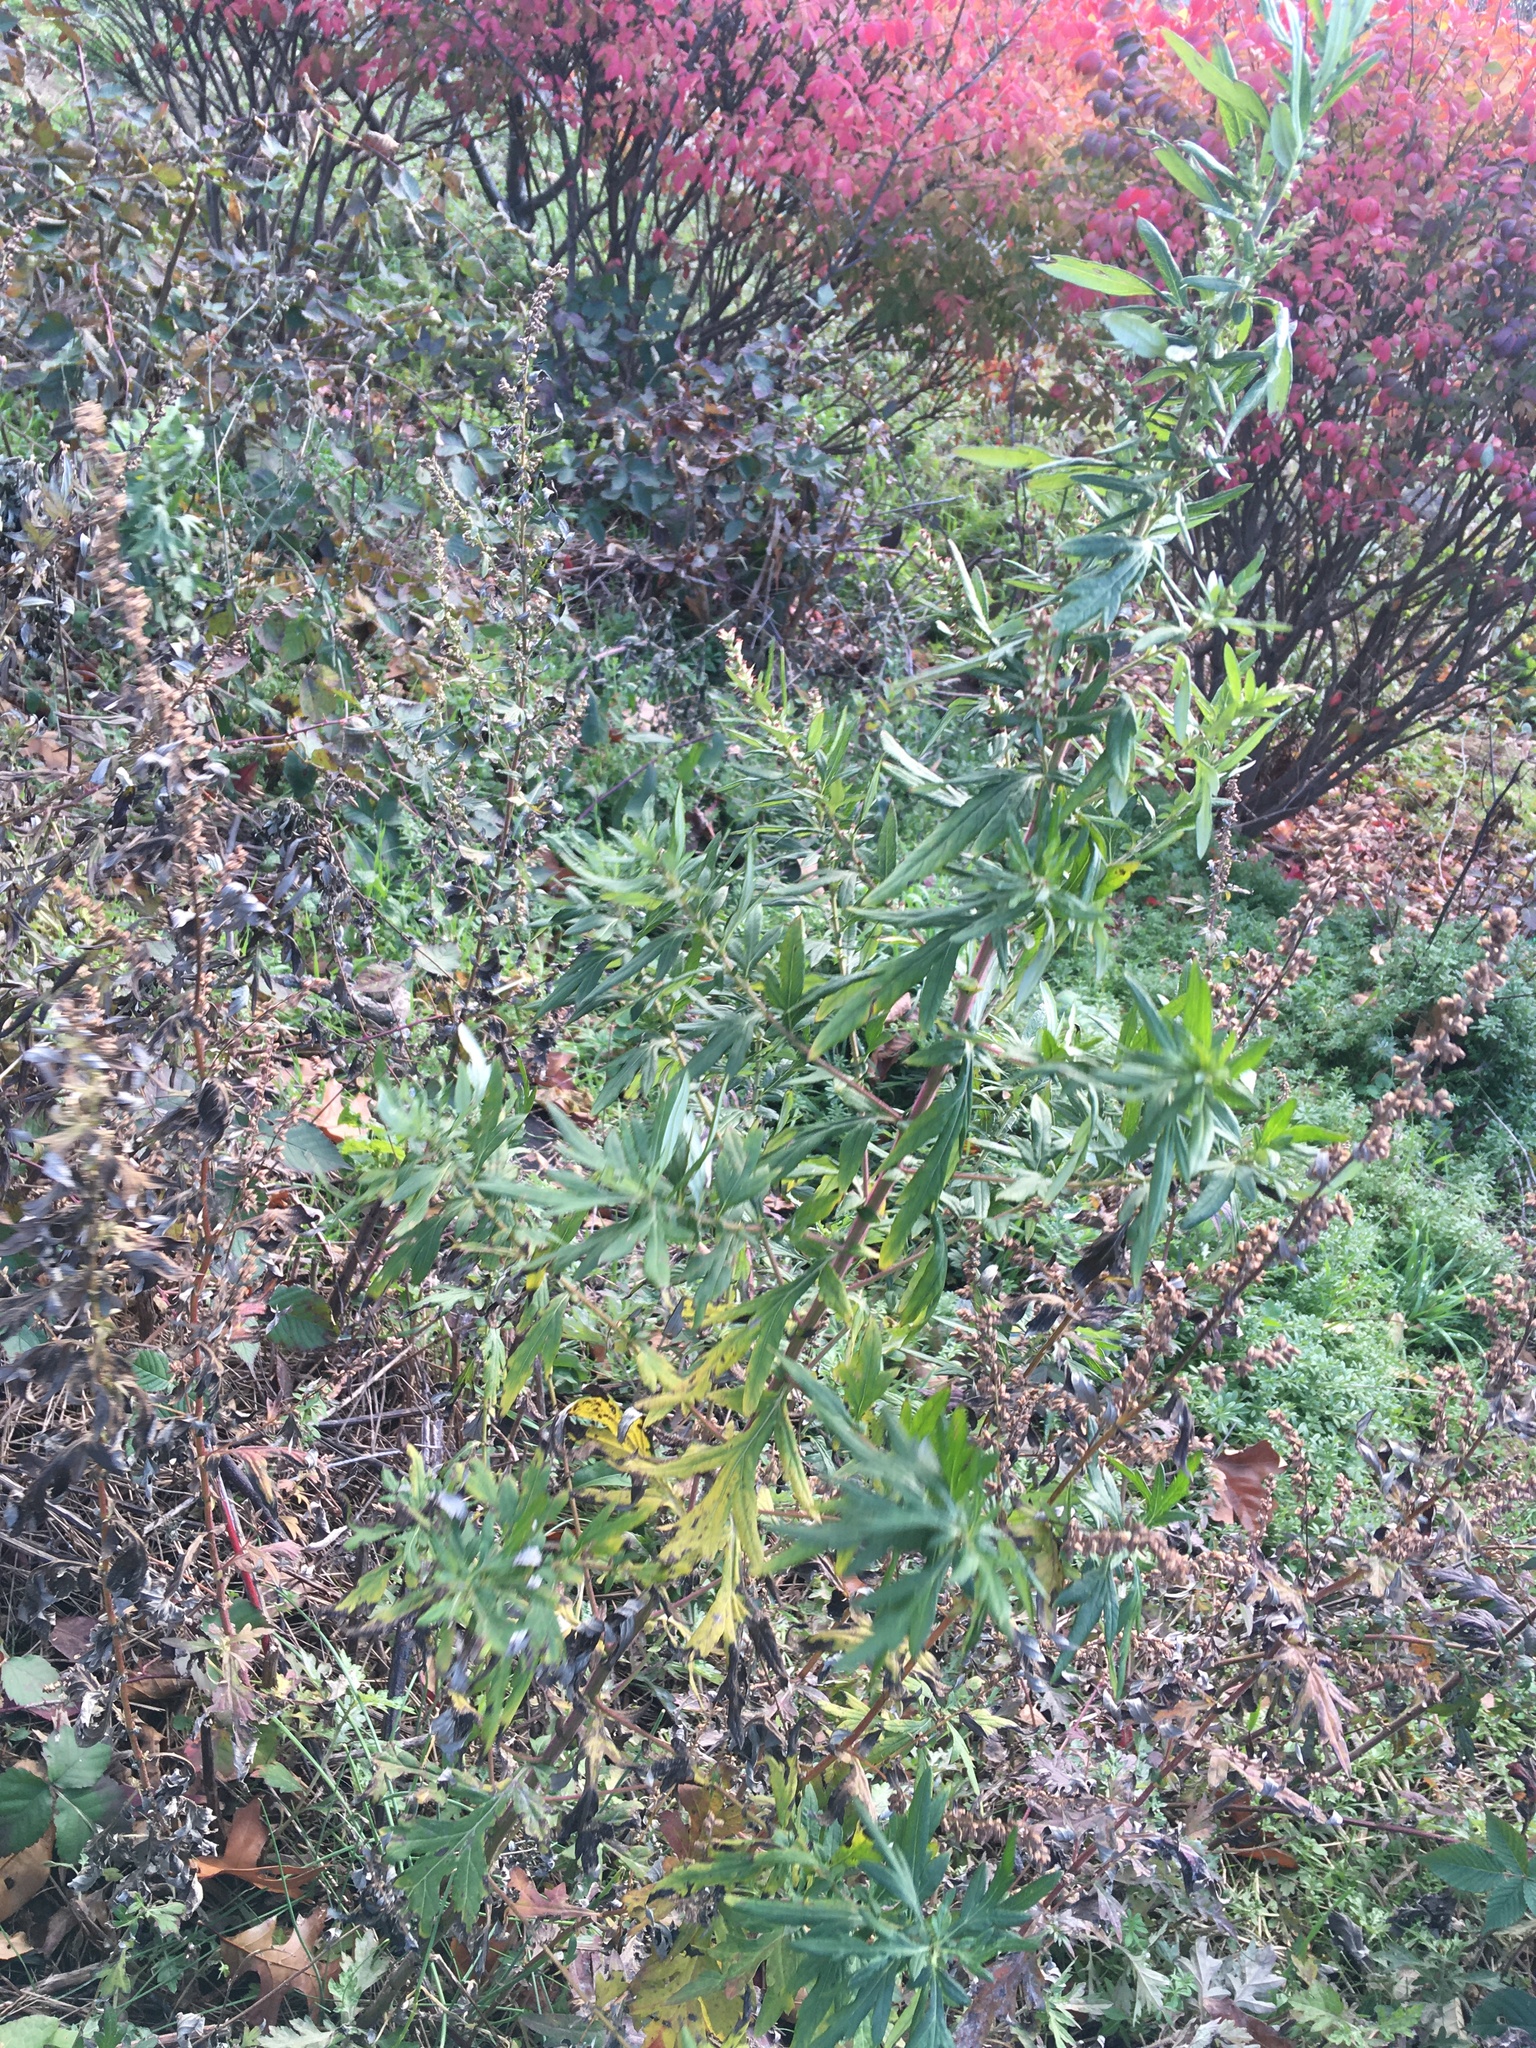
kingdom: Plantae
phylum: Tracheophyta
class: Magnoliopsida
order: Asterales
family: Asteraceae
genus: Artemisia
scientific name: Artemisia vulgaris
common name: Mugwort
